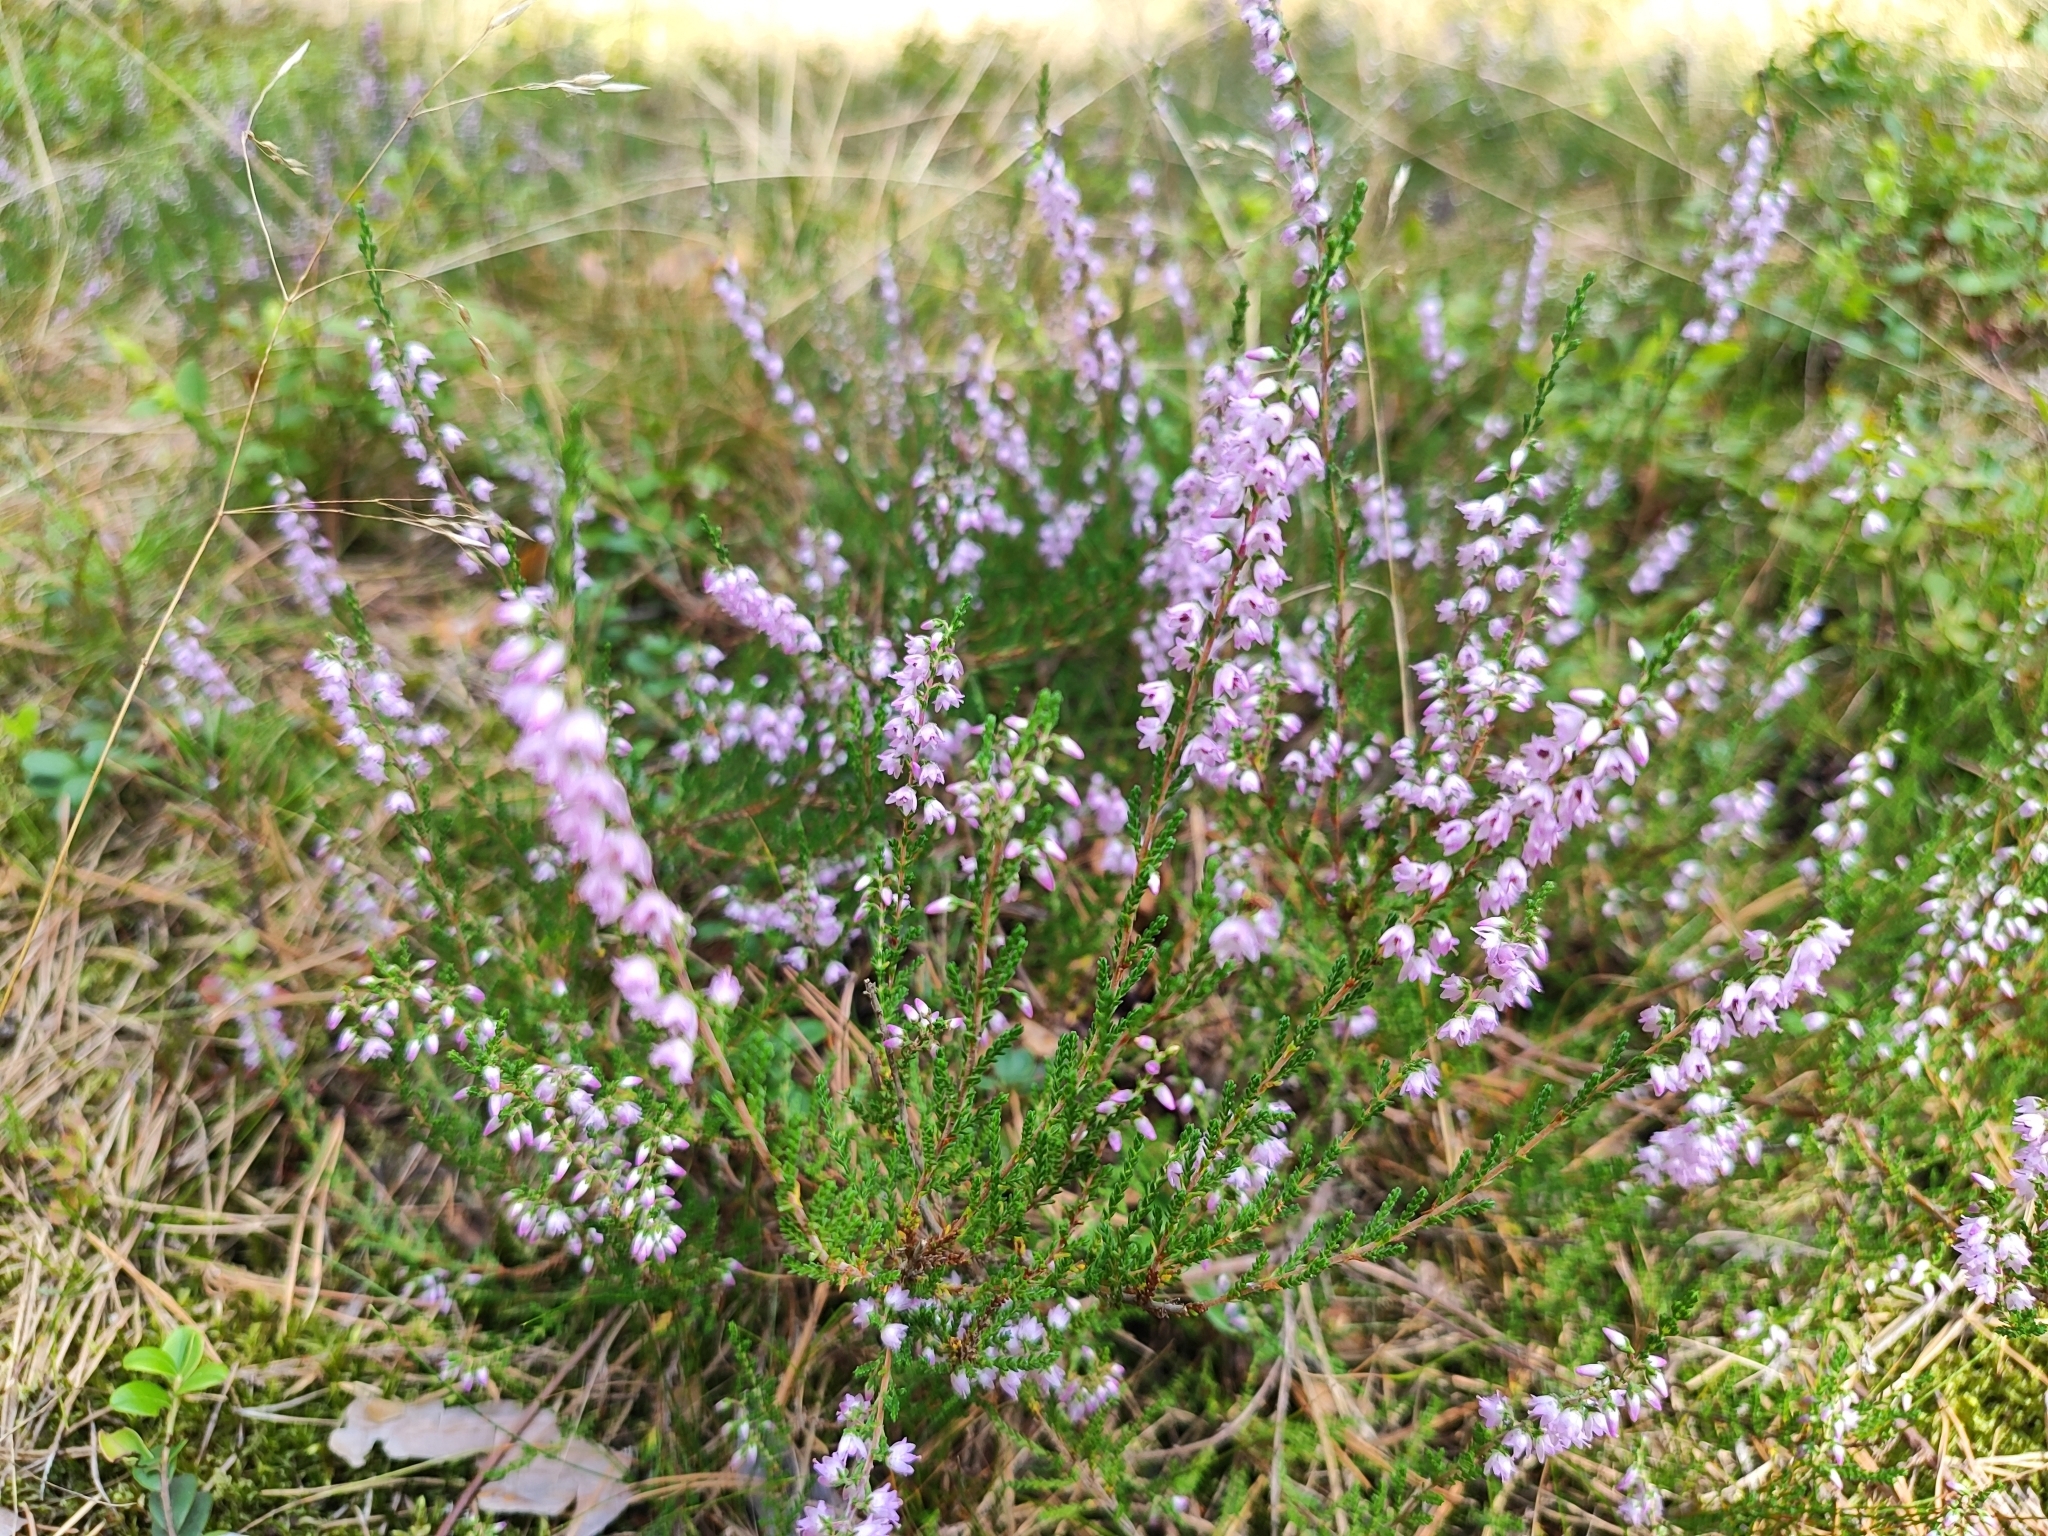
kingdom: Plantae
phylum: Tracheophyta
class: Magnoliopsida
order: Ericales
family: Ericaceae
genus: Calluna
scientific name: Calluna vulgaris
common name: Heather
